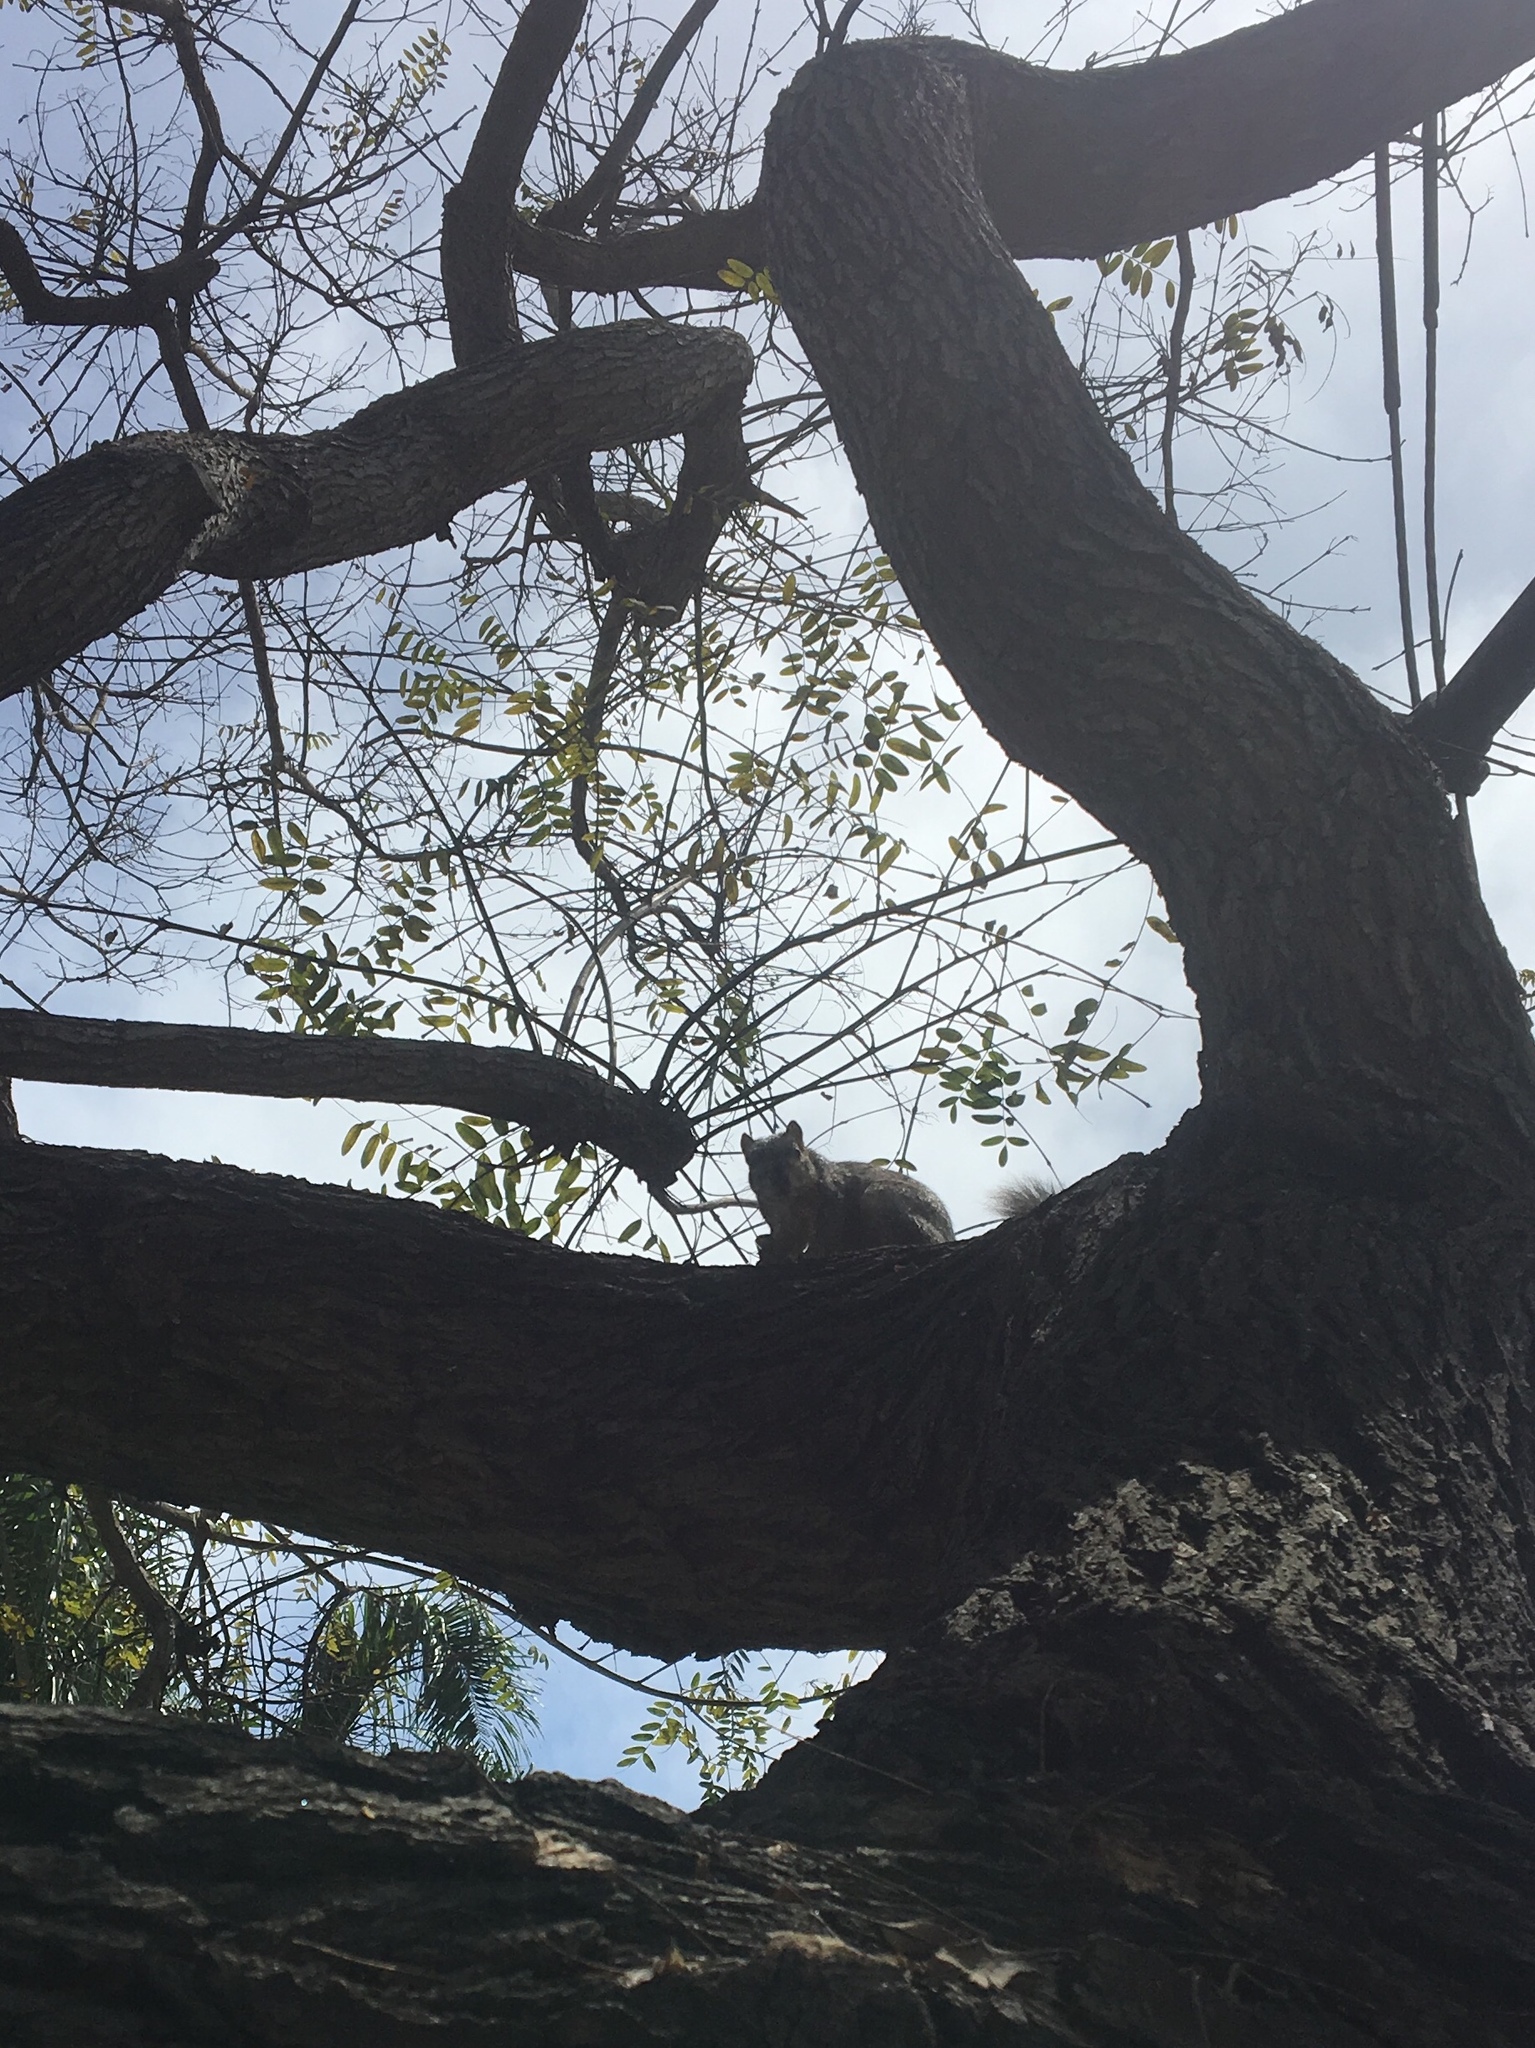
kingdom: Animalia
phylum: Chordata
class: Mammalia
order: Rodentia
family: Sciuridae
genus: Sciurus
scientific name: Sciurus niger
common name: Fox squirrel
